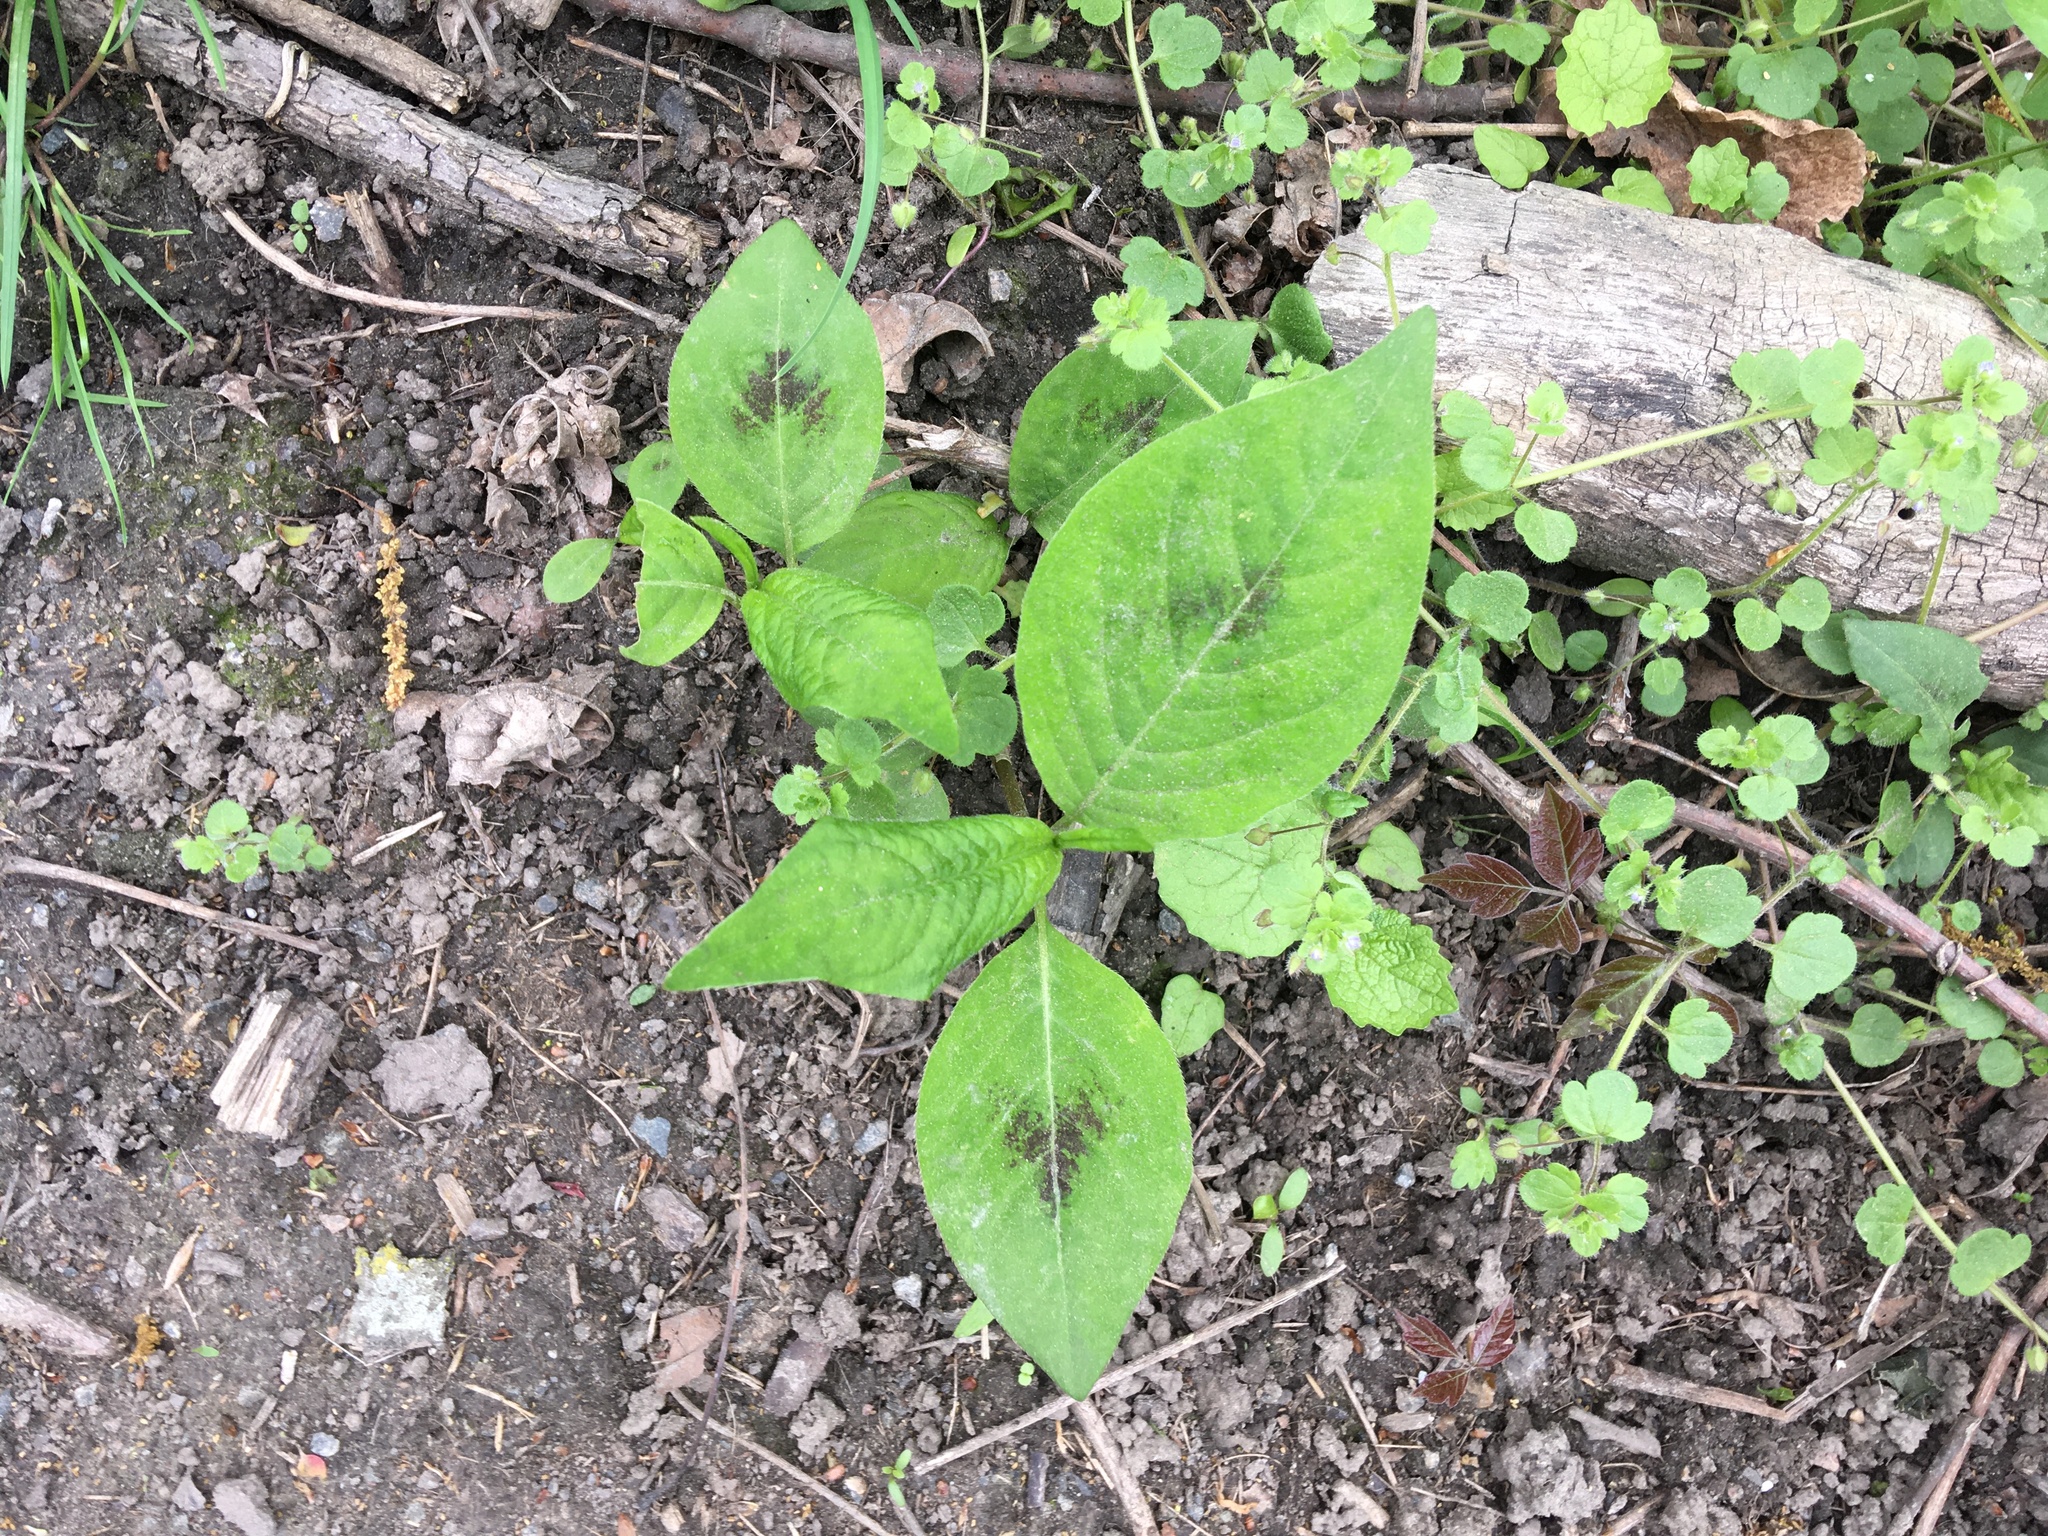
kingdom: Plantae
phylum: Tracheophyta
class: Magnoliopsida
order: Caryophyllales
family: Polygonaceae
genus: Persicaria
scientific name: Persicaria virginiana
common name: Jumpseed
